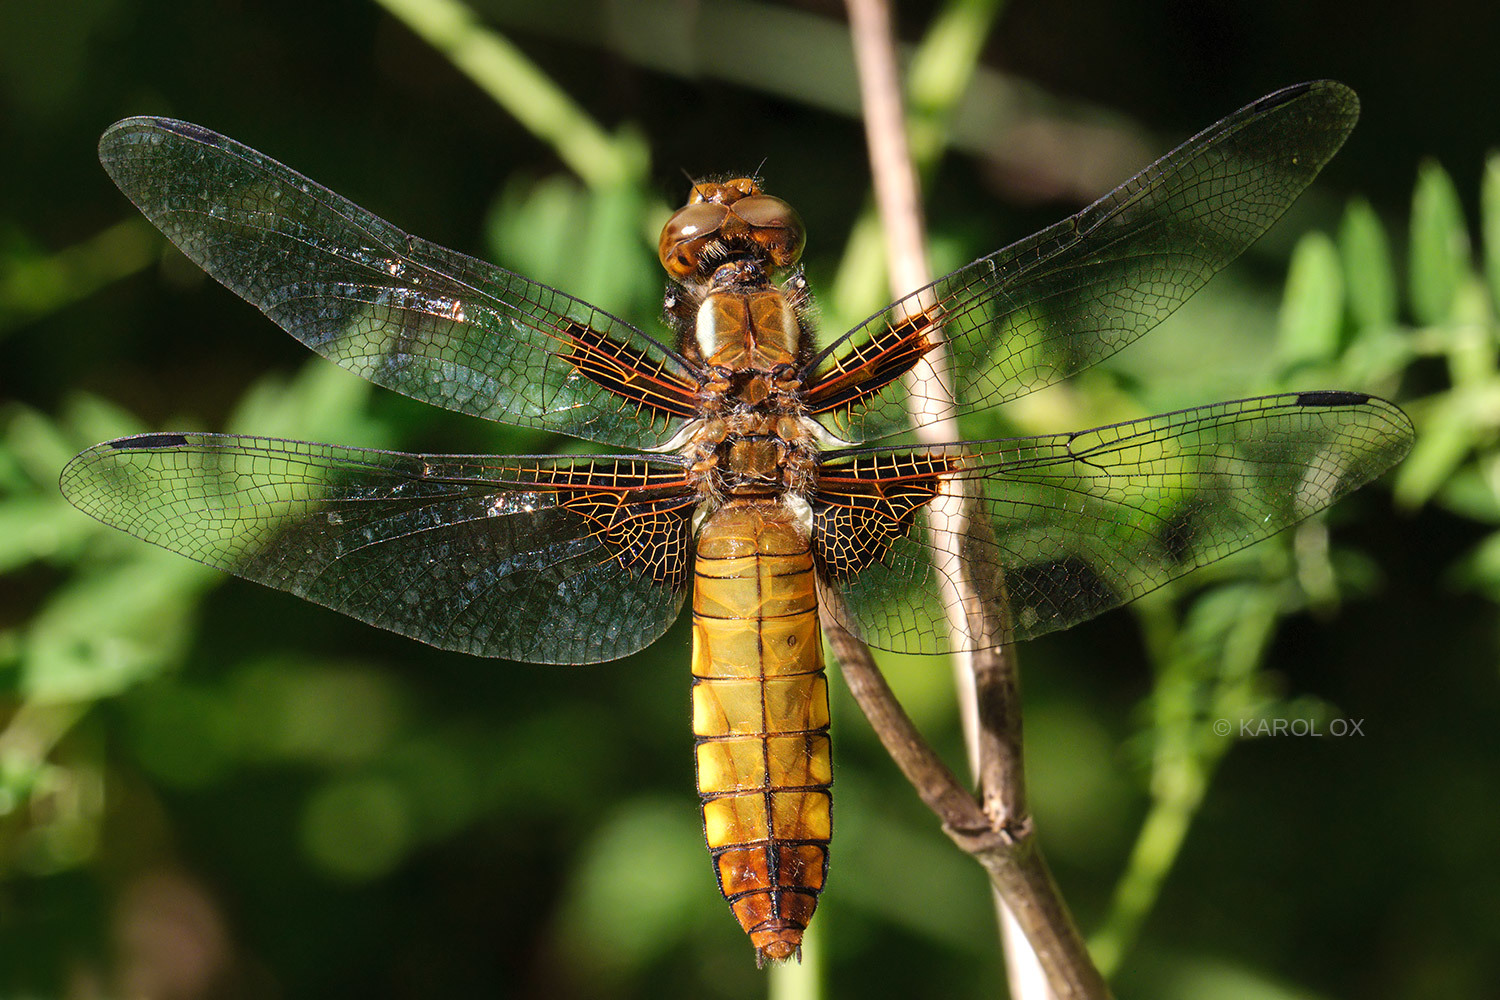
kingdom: Animalia
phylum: Arthropoda
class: Insecta
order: Odonata
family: Libellulidae
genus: Libellula
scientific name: Libellula depressa
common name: Broad-bodied chaser
